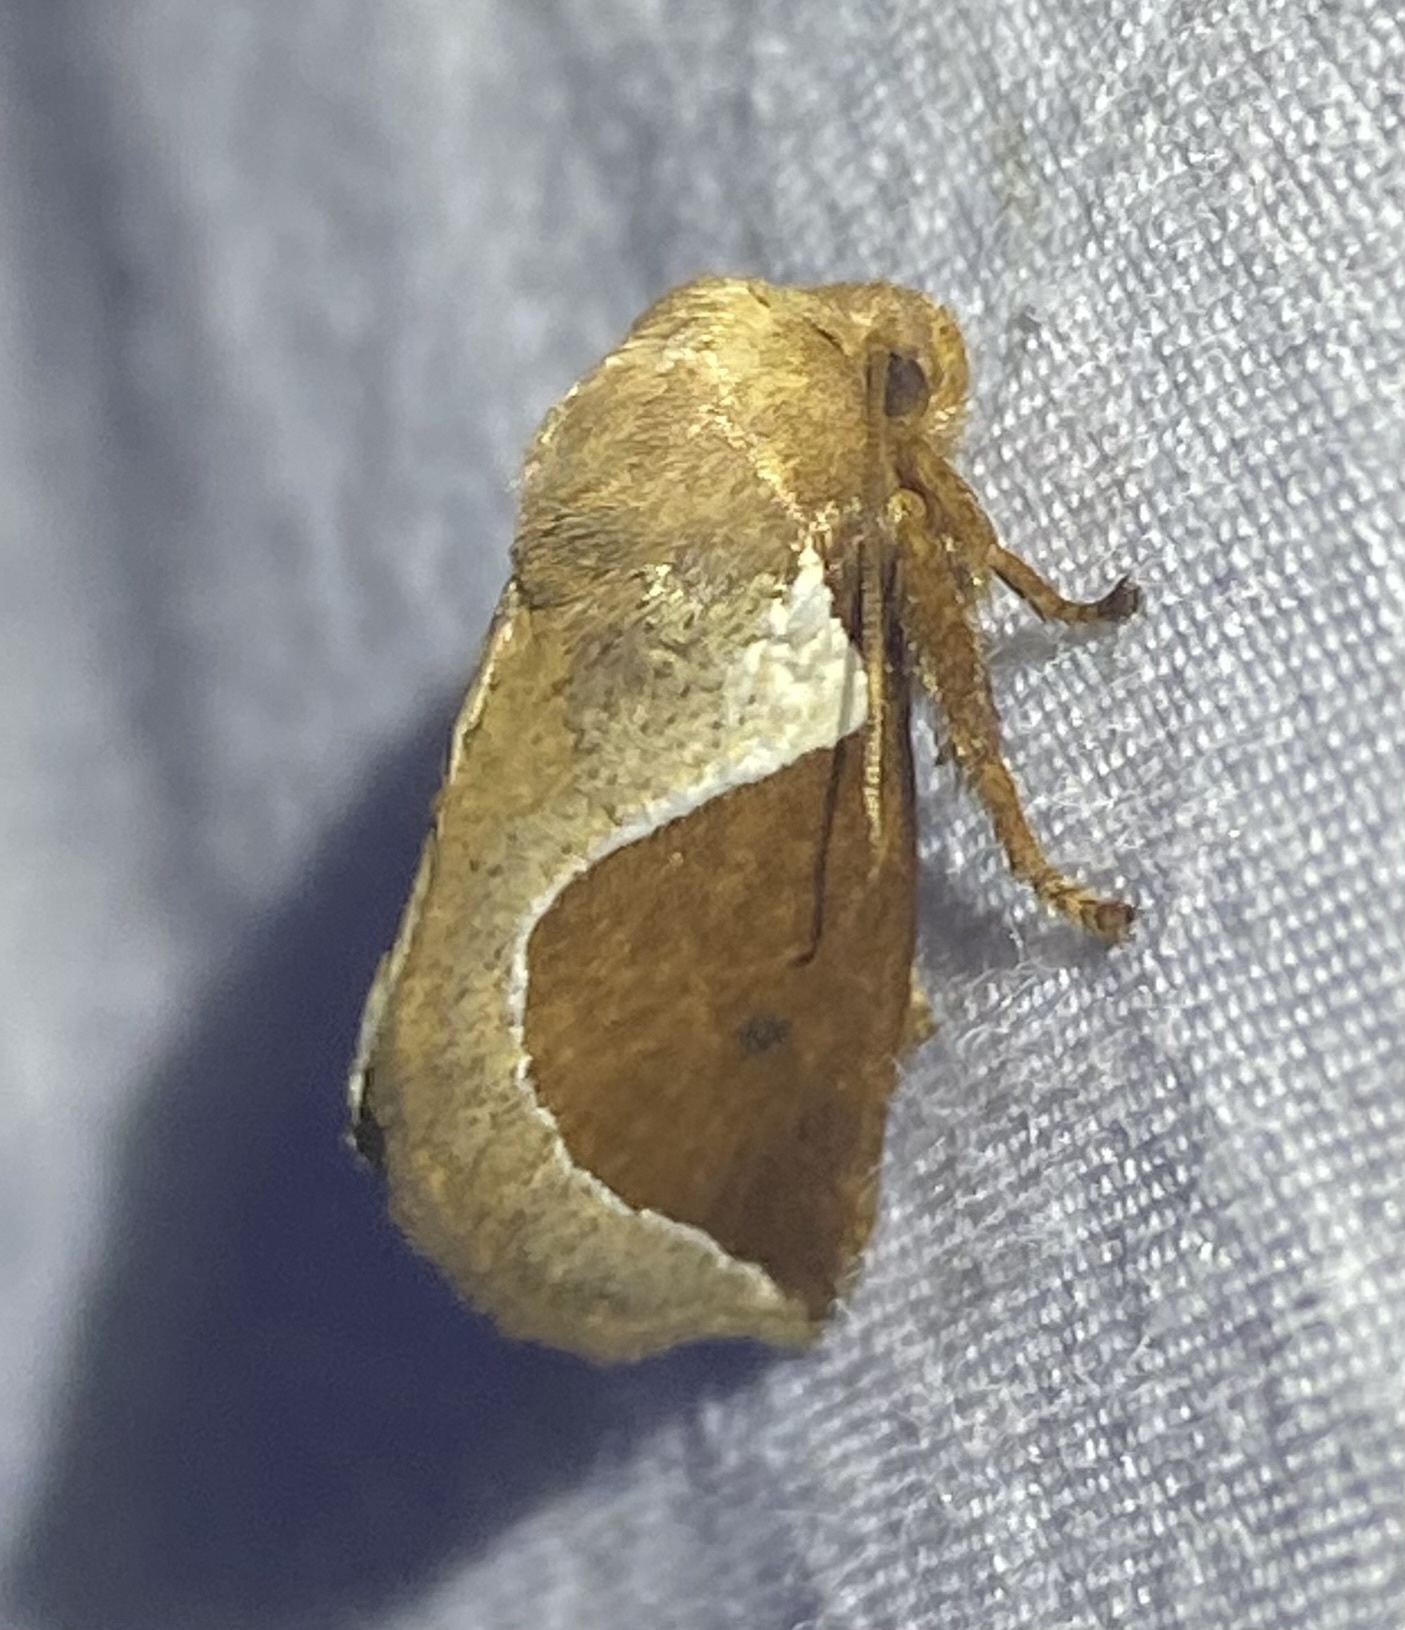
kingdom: Animalia
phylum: Arthropoda
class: Insecta
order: Lepidoptera
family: Limacodidae
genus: Prolimacodes
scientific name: Prolimacodes badia
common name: Skiff moth
